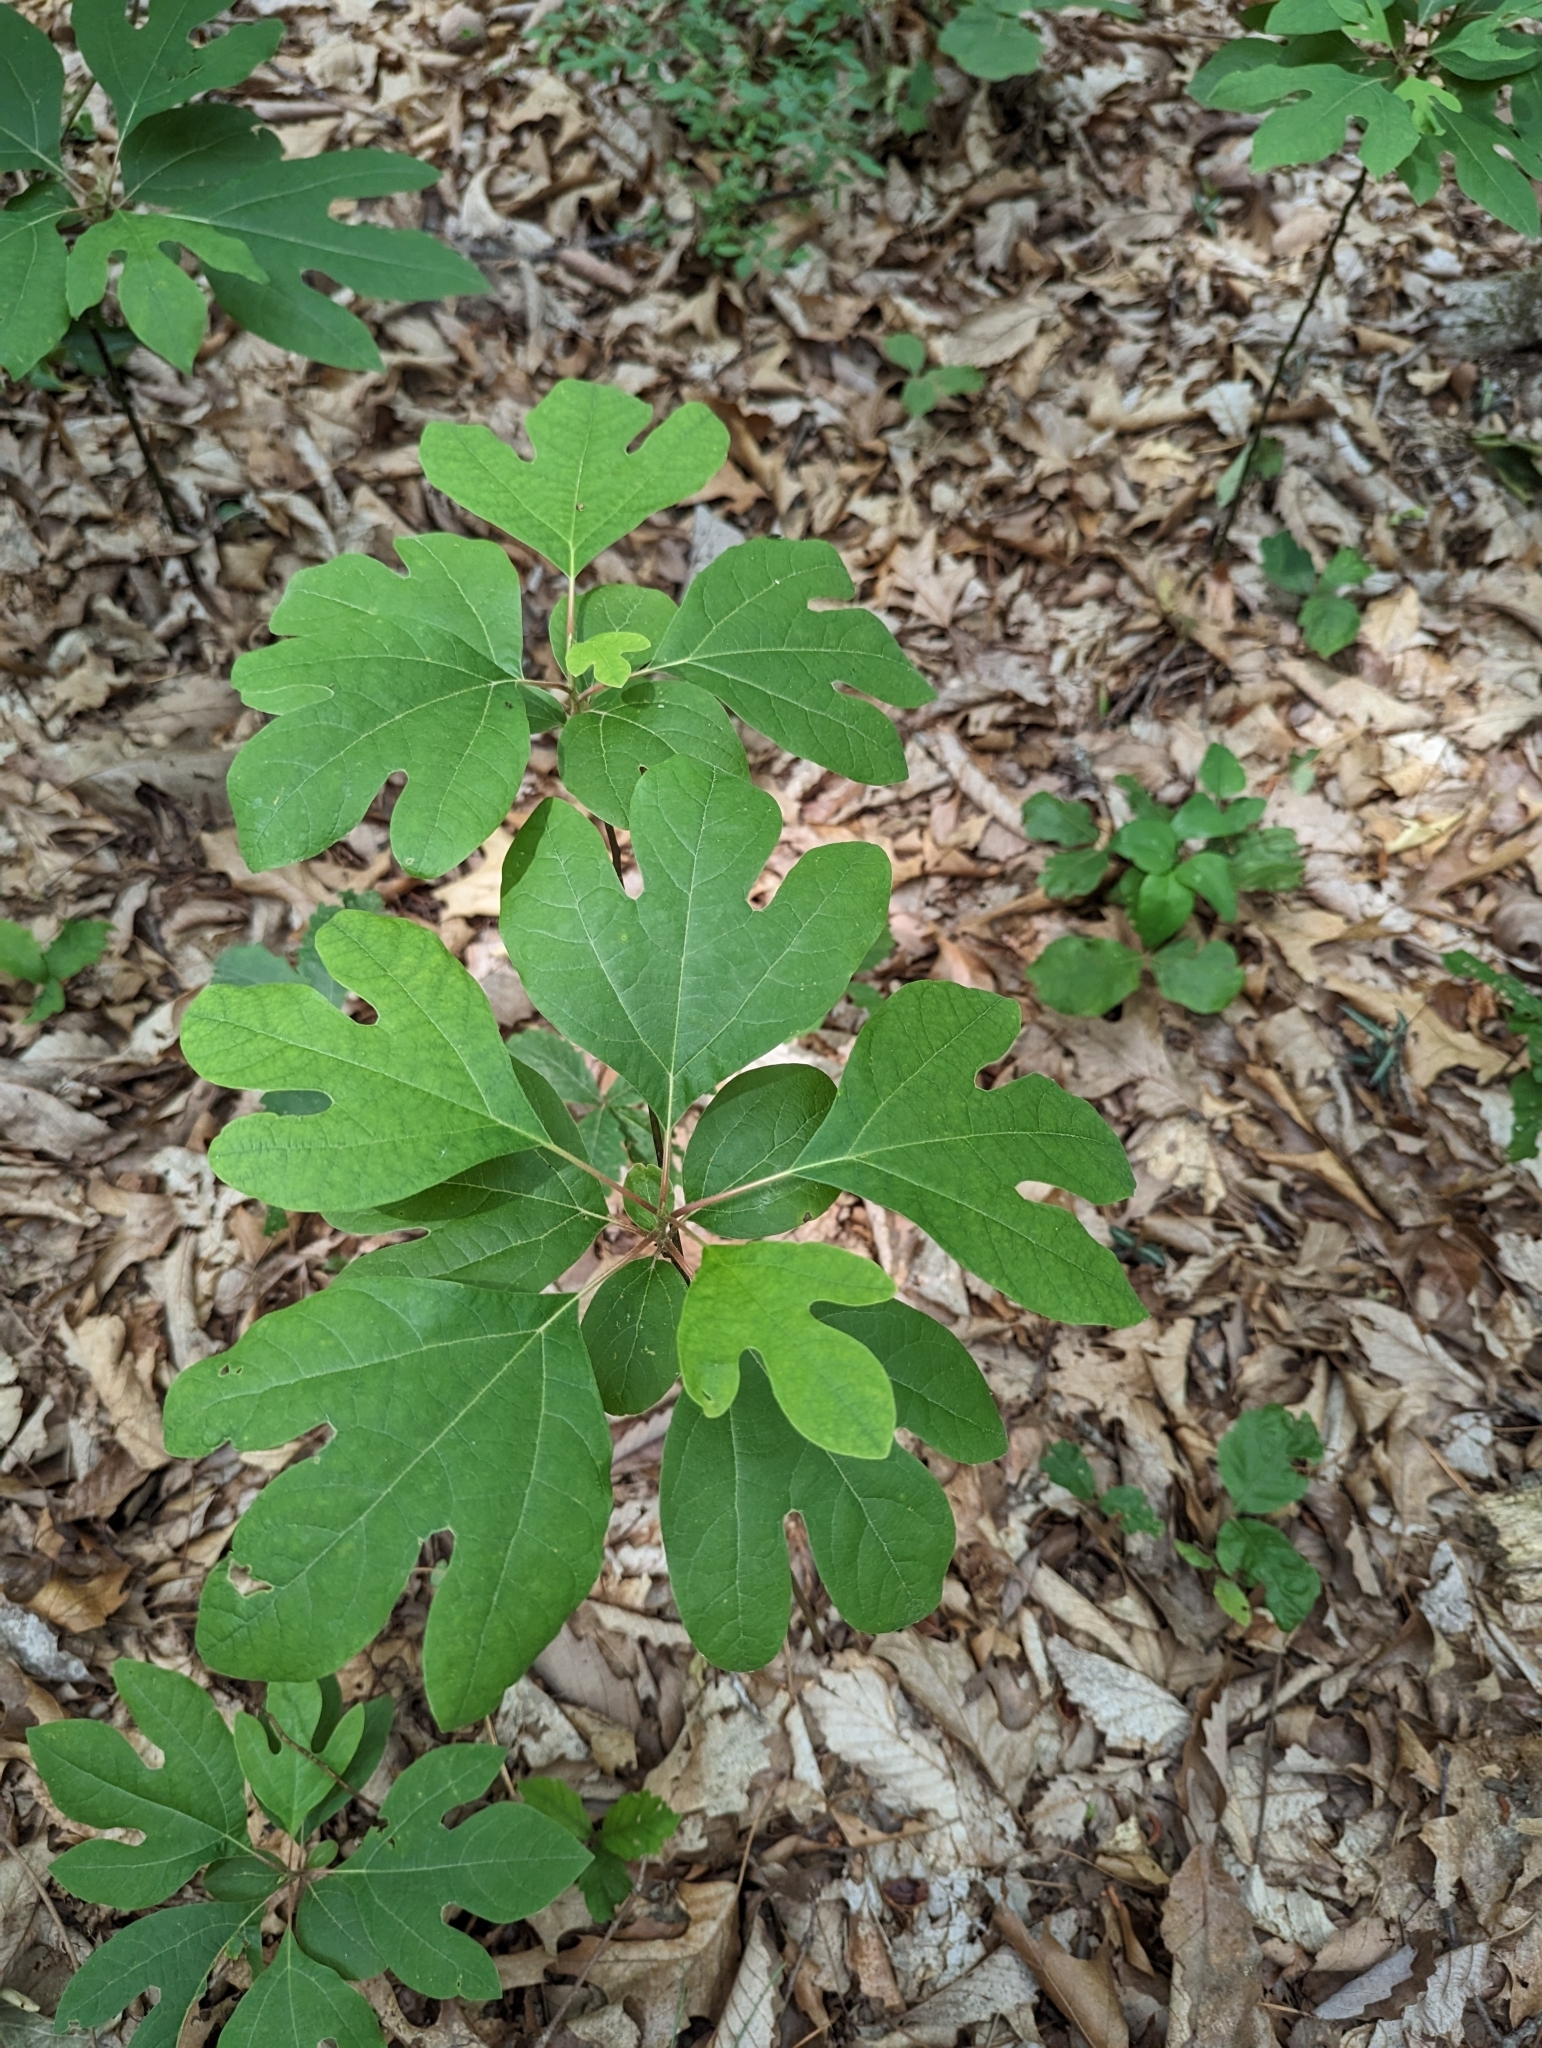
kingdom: Plantae
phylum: Tracheophyta
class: Magnoliopsida
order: Laurales
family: Lauraceae
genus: Sassafras
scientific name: Sassafras albidum
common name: Sassafras
